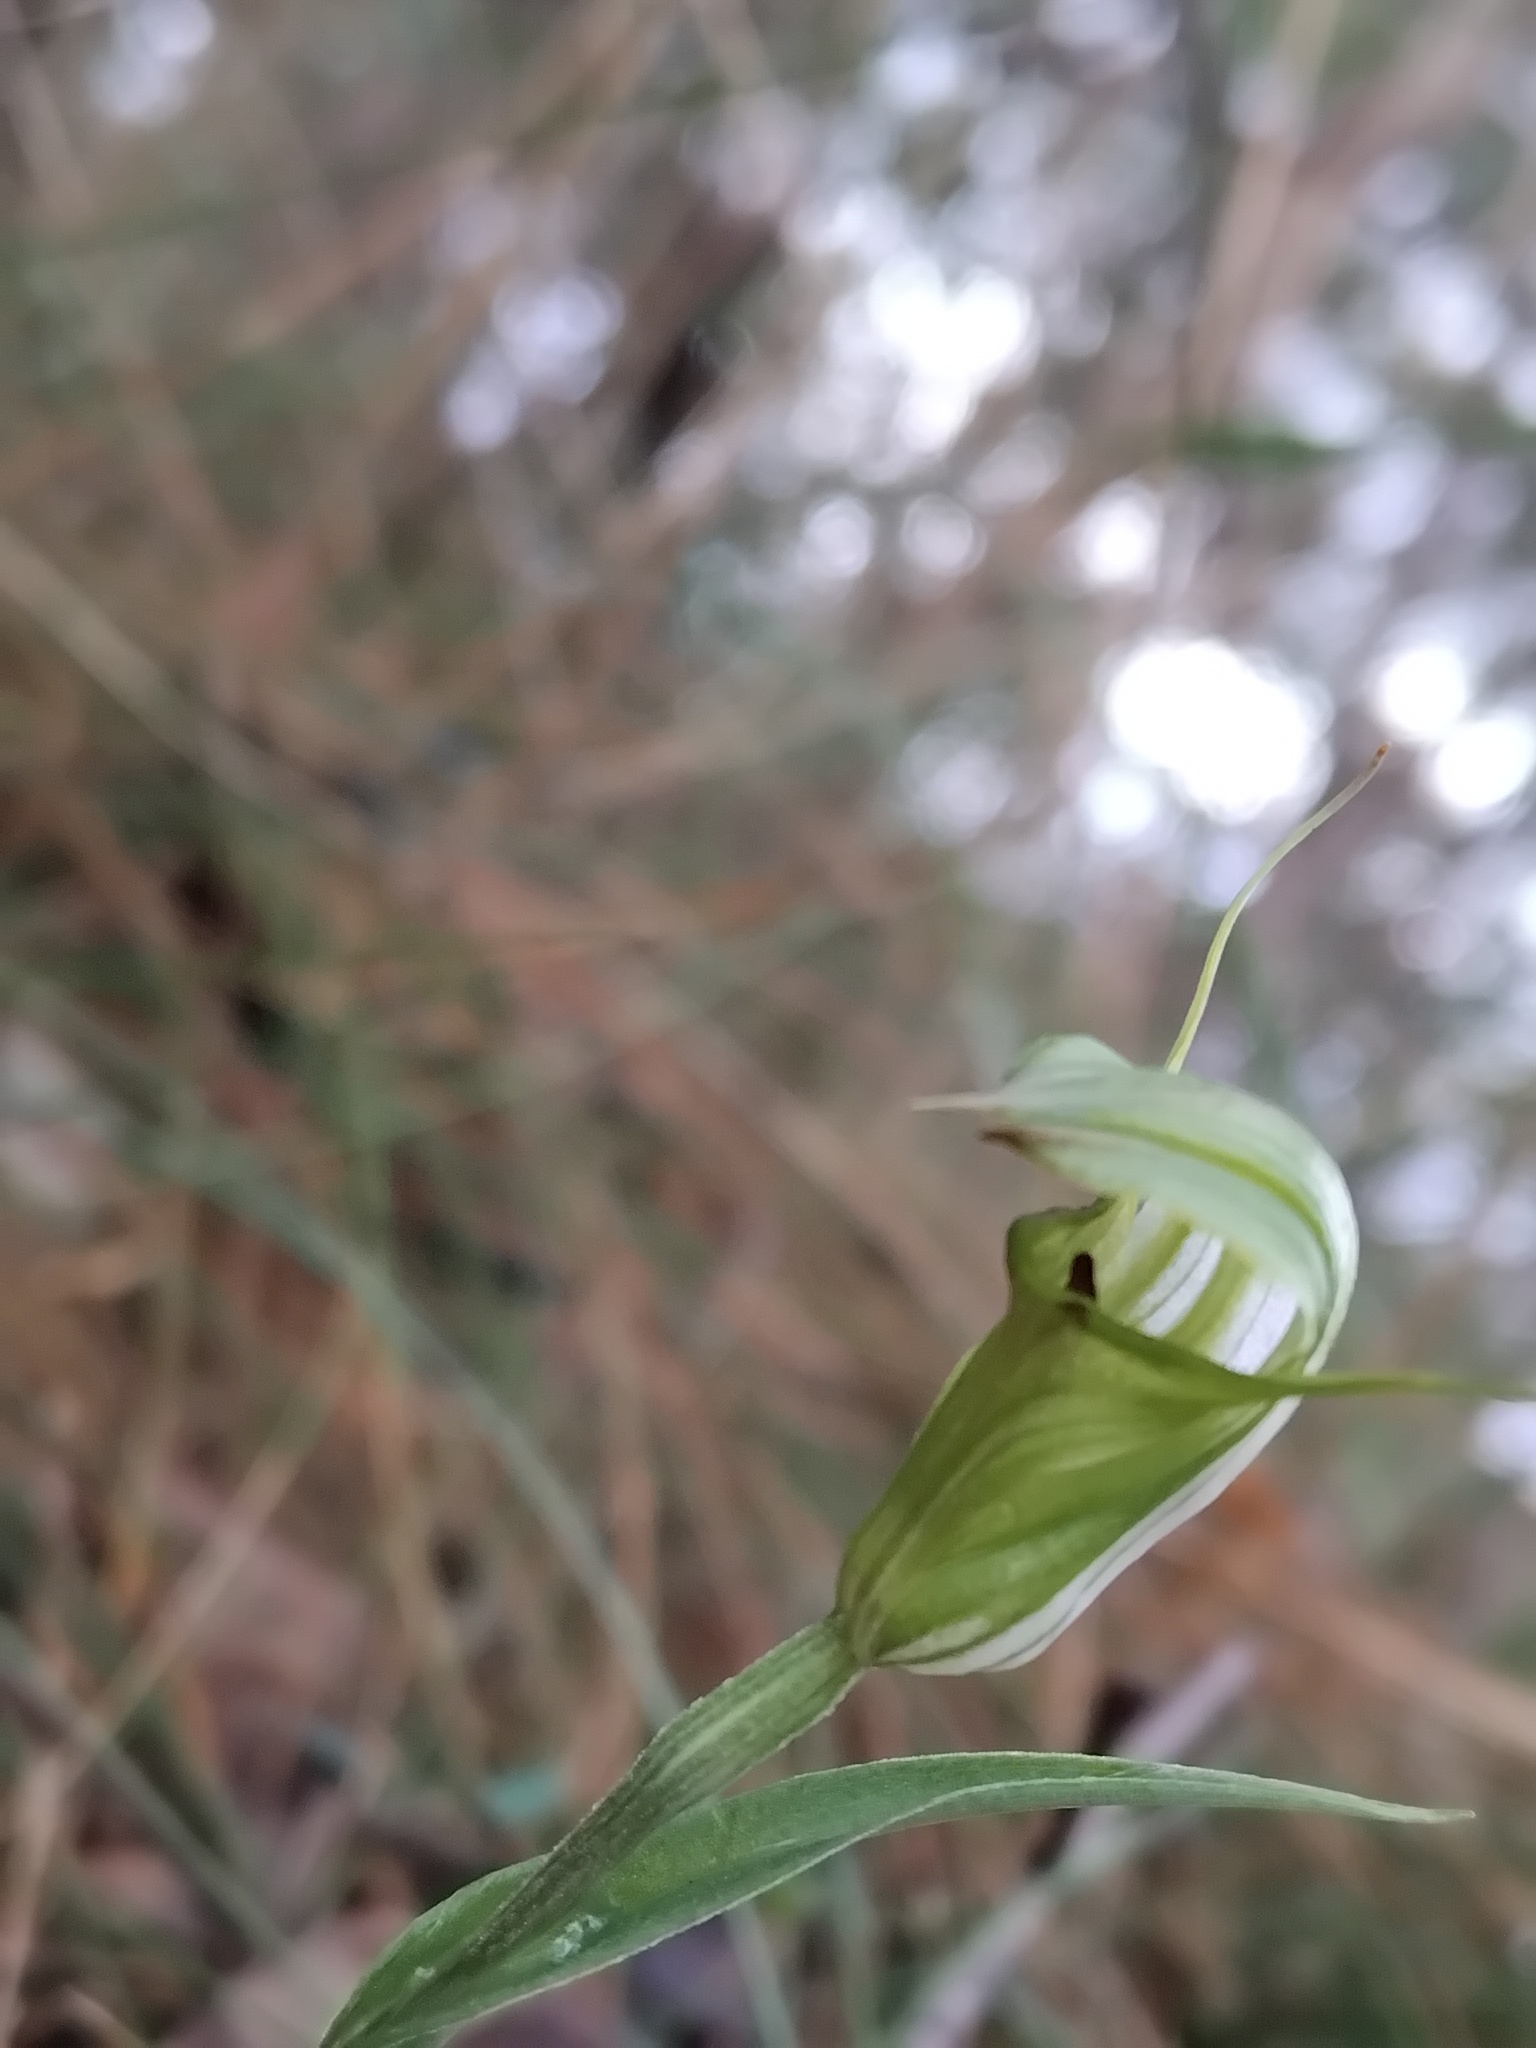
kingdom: Plantae
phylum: Tracheophyta
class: Liliopsida
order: Asparagales
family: Orchidaceae
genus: Pterostylis
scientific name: Pterostylis torquata
